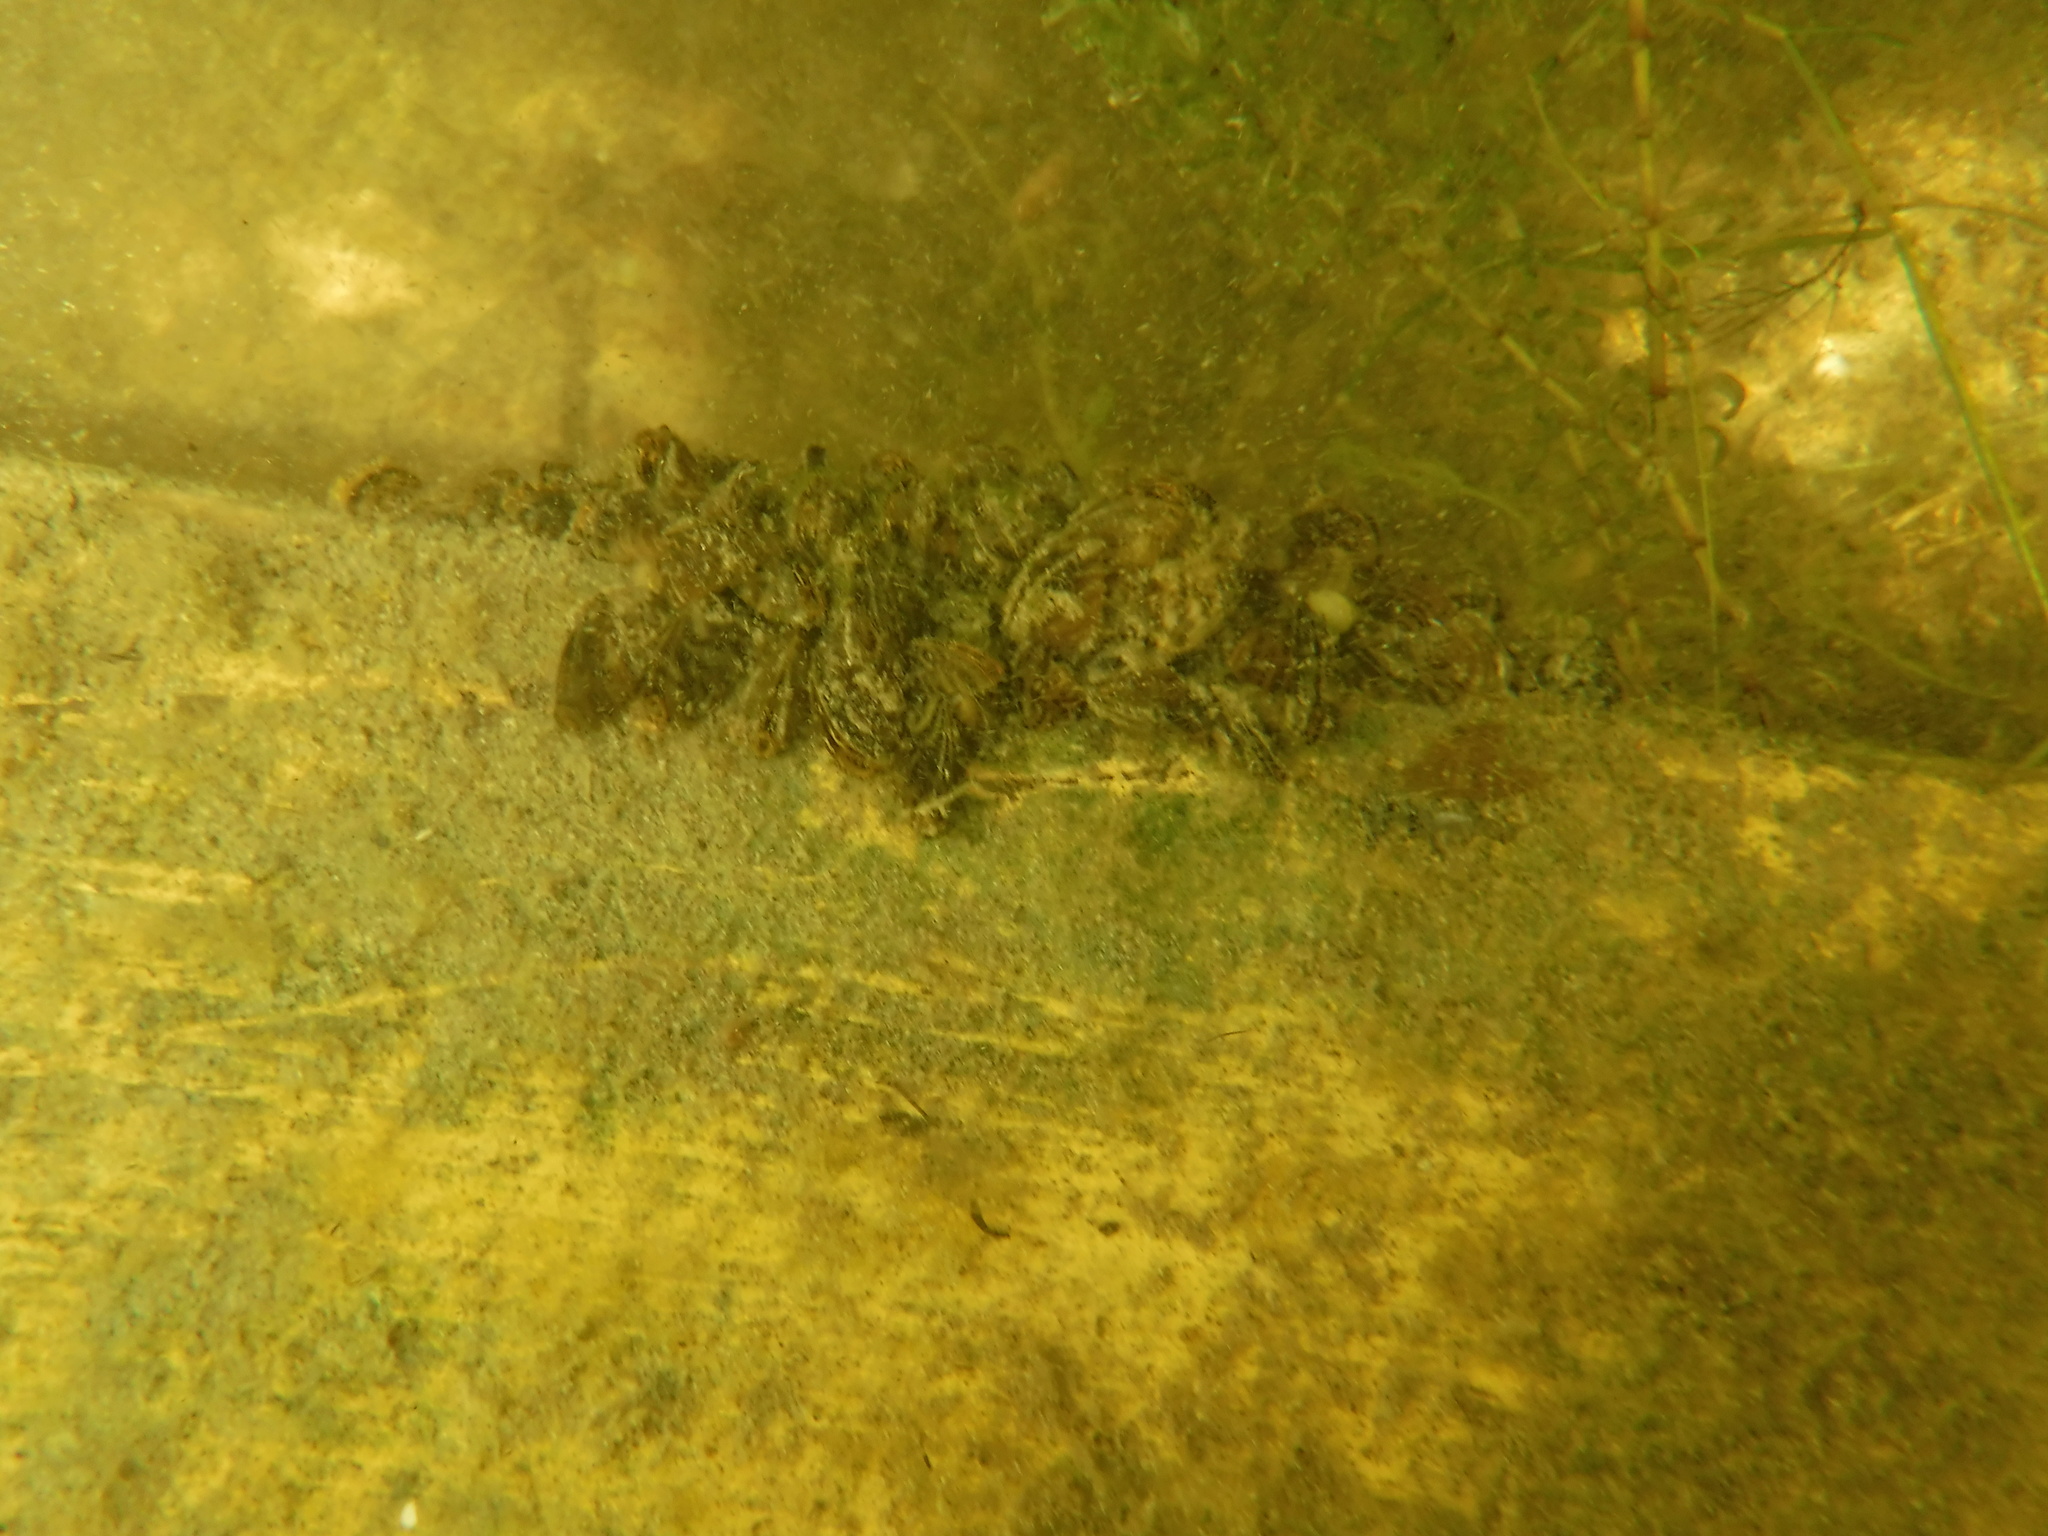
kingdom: Animalia
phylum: Mollusca
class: Bivalvia
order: Myida
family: Dreissenidae
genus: Dreissena
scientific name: Dreissena polymorpha
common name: Zebra mussel
